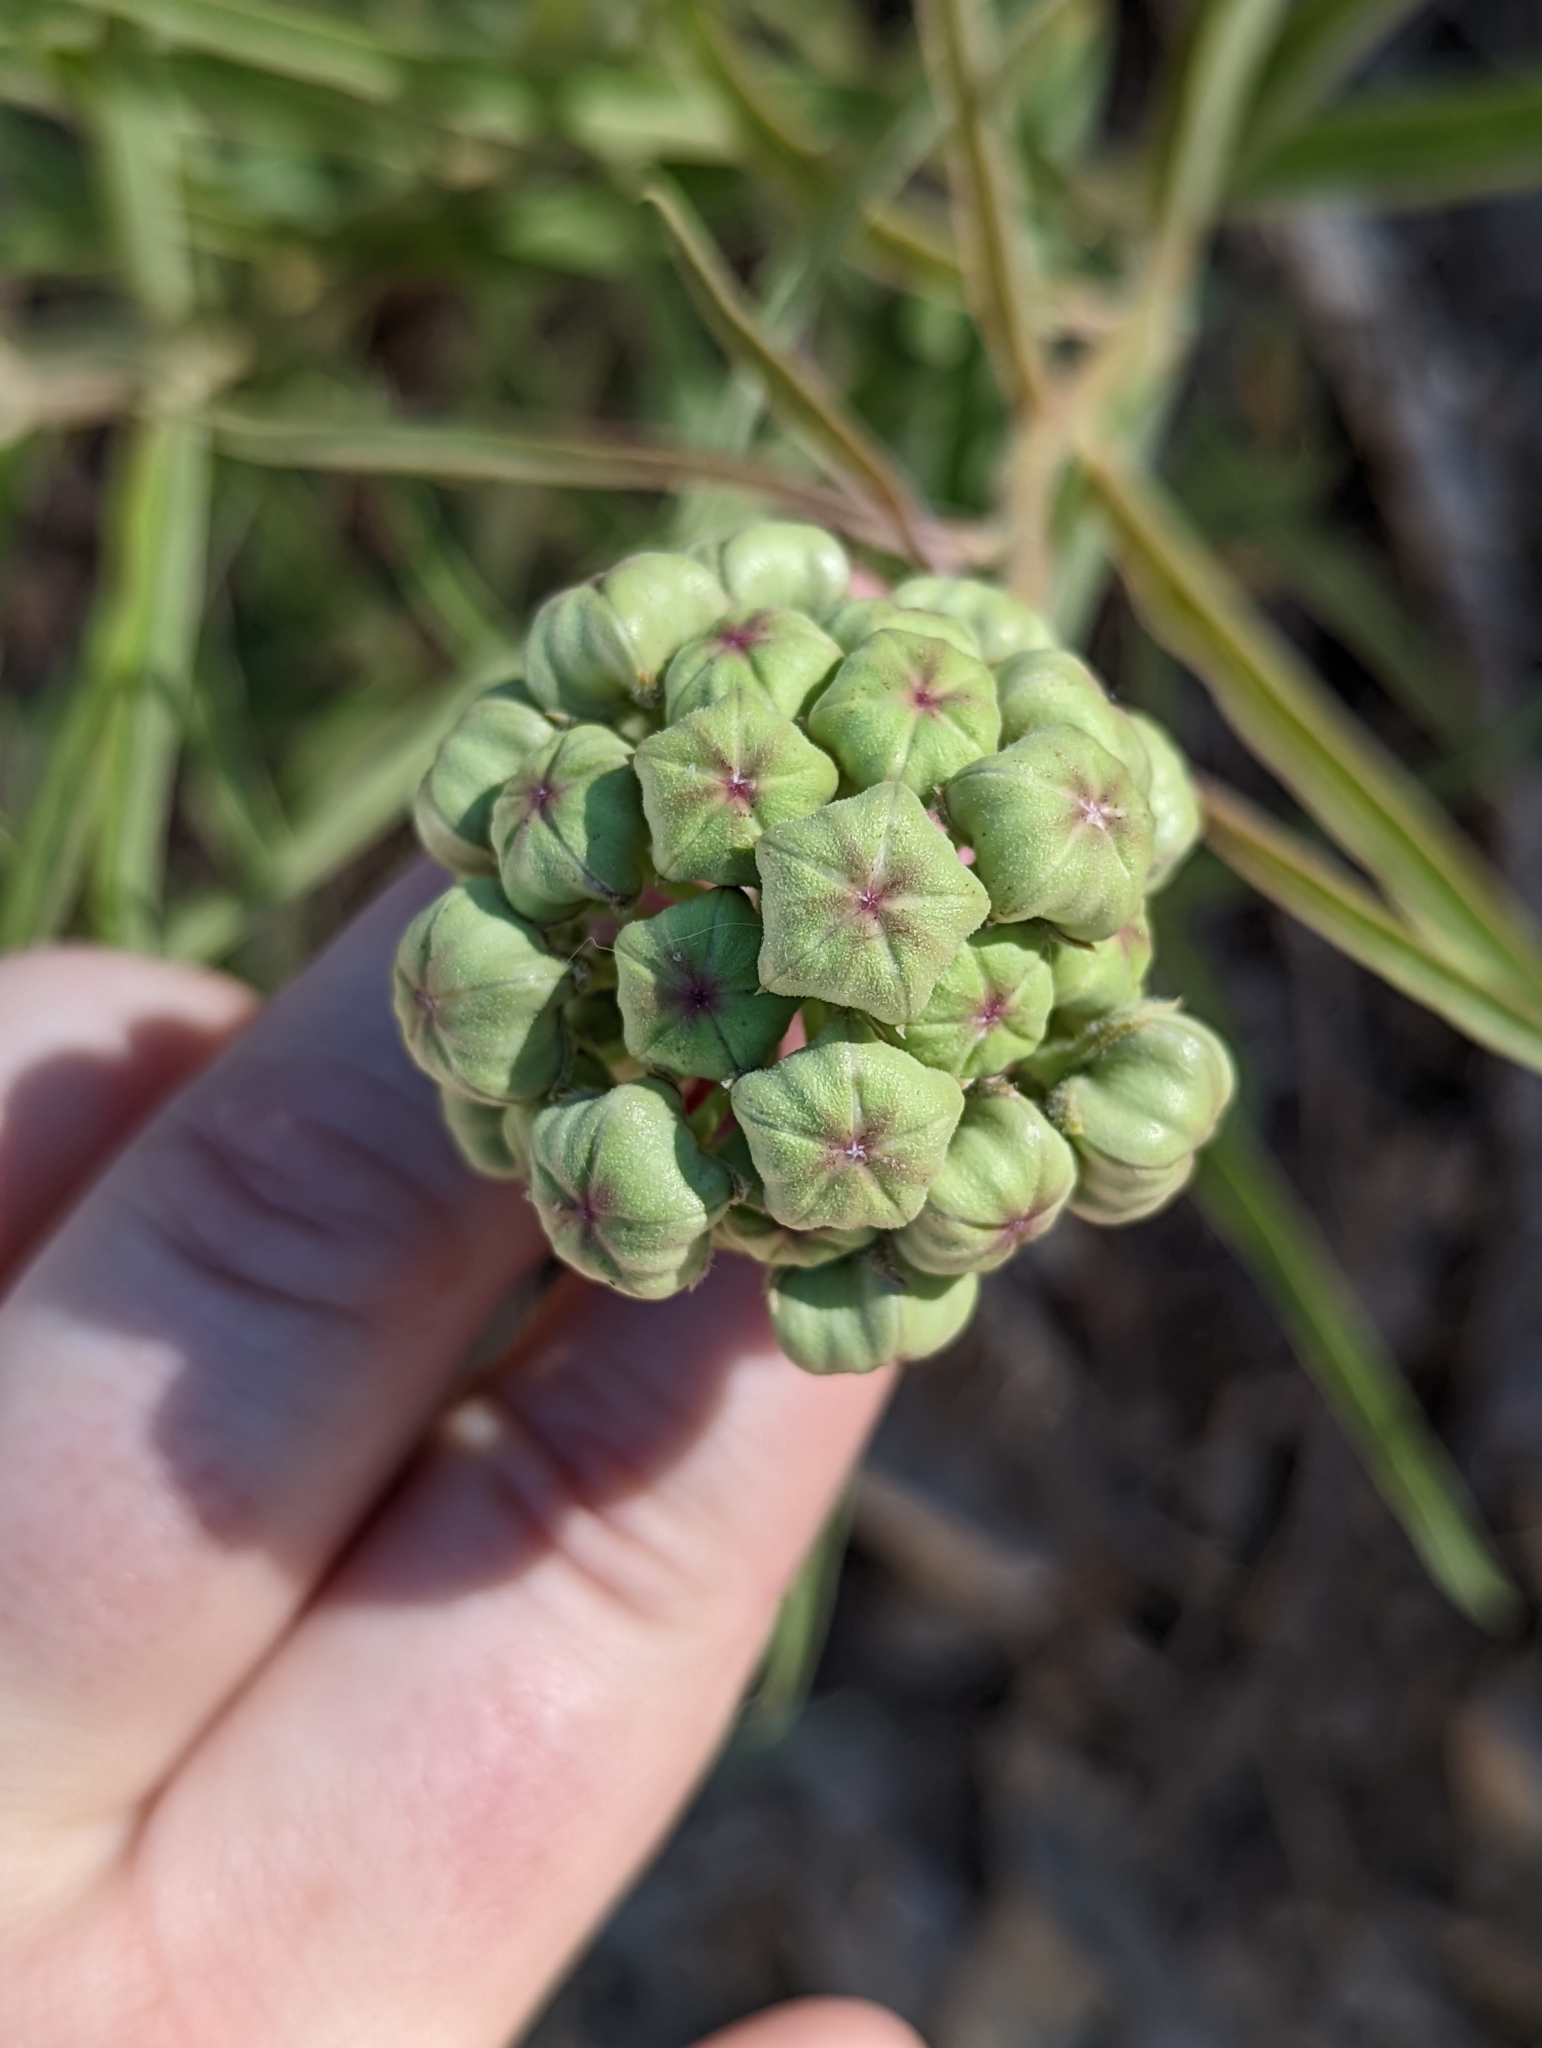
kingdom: Plantae
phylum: Tracheophyta
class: Magnoliopsida
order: Gentianales
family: Apocynaceae
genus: Asclepias
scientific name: Asclepias asperula
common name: Antelope horns
